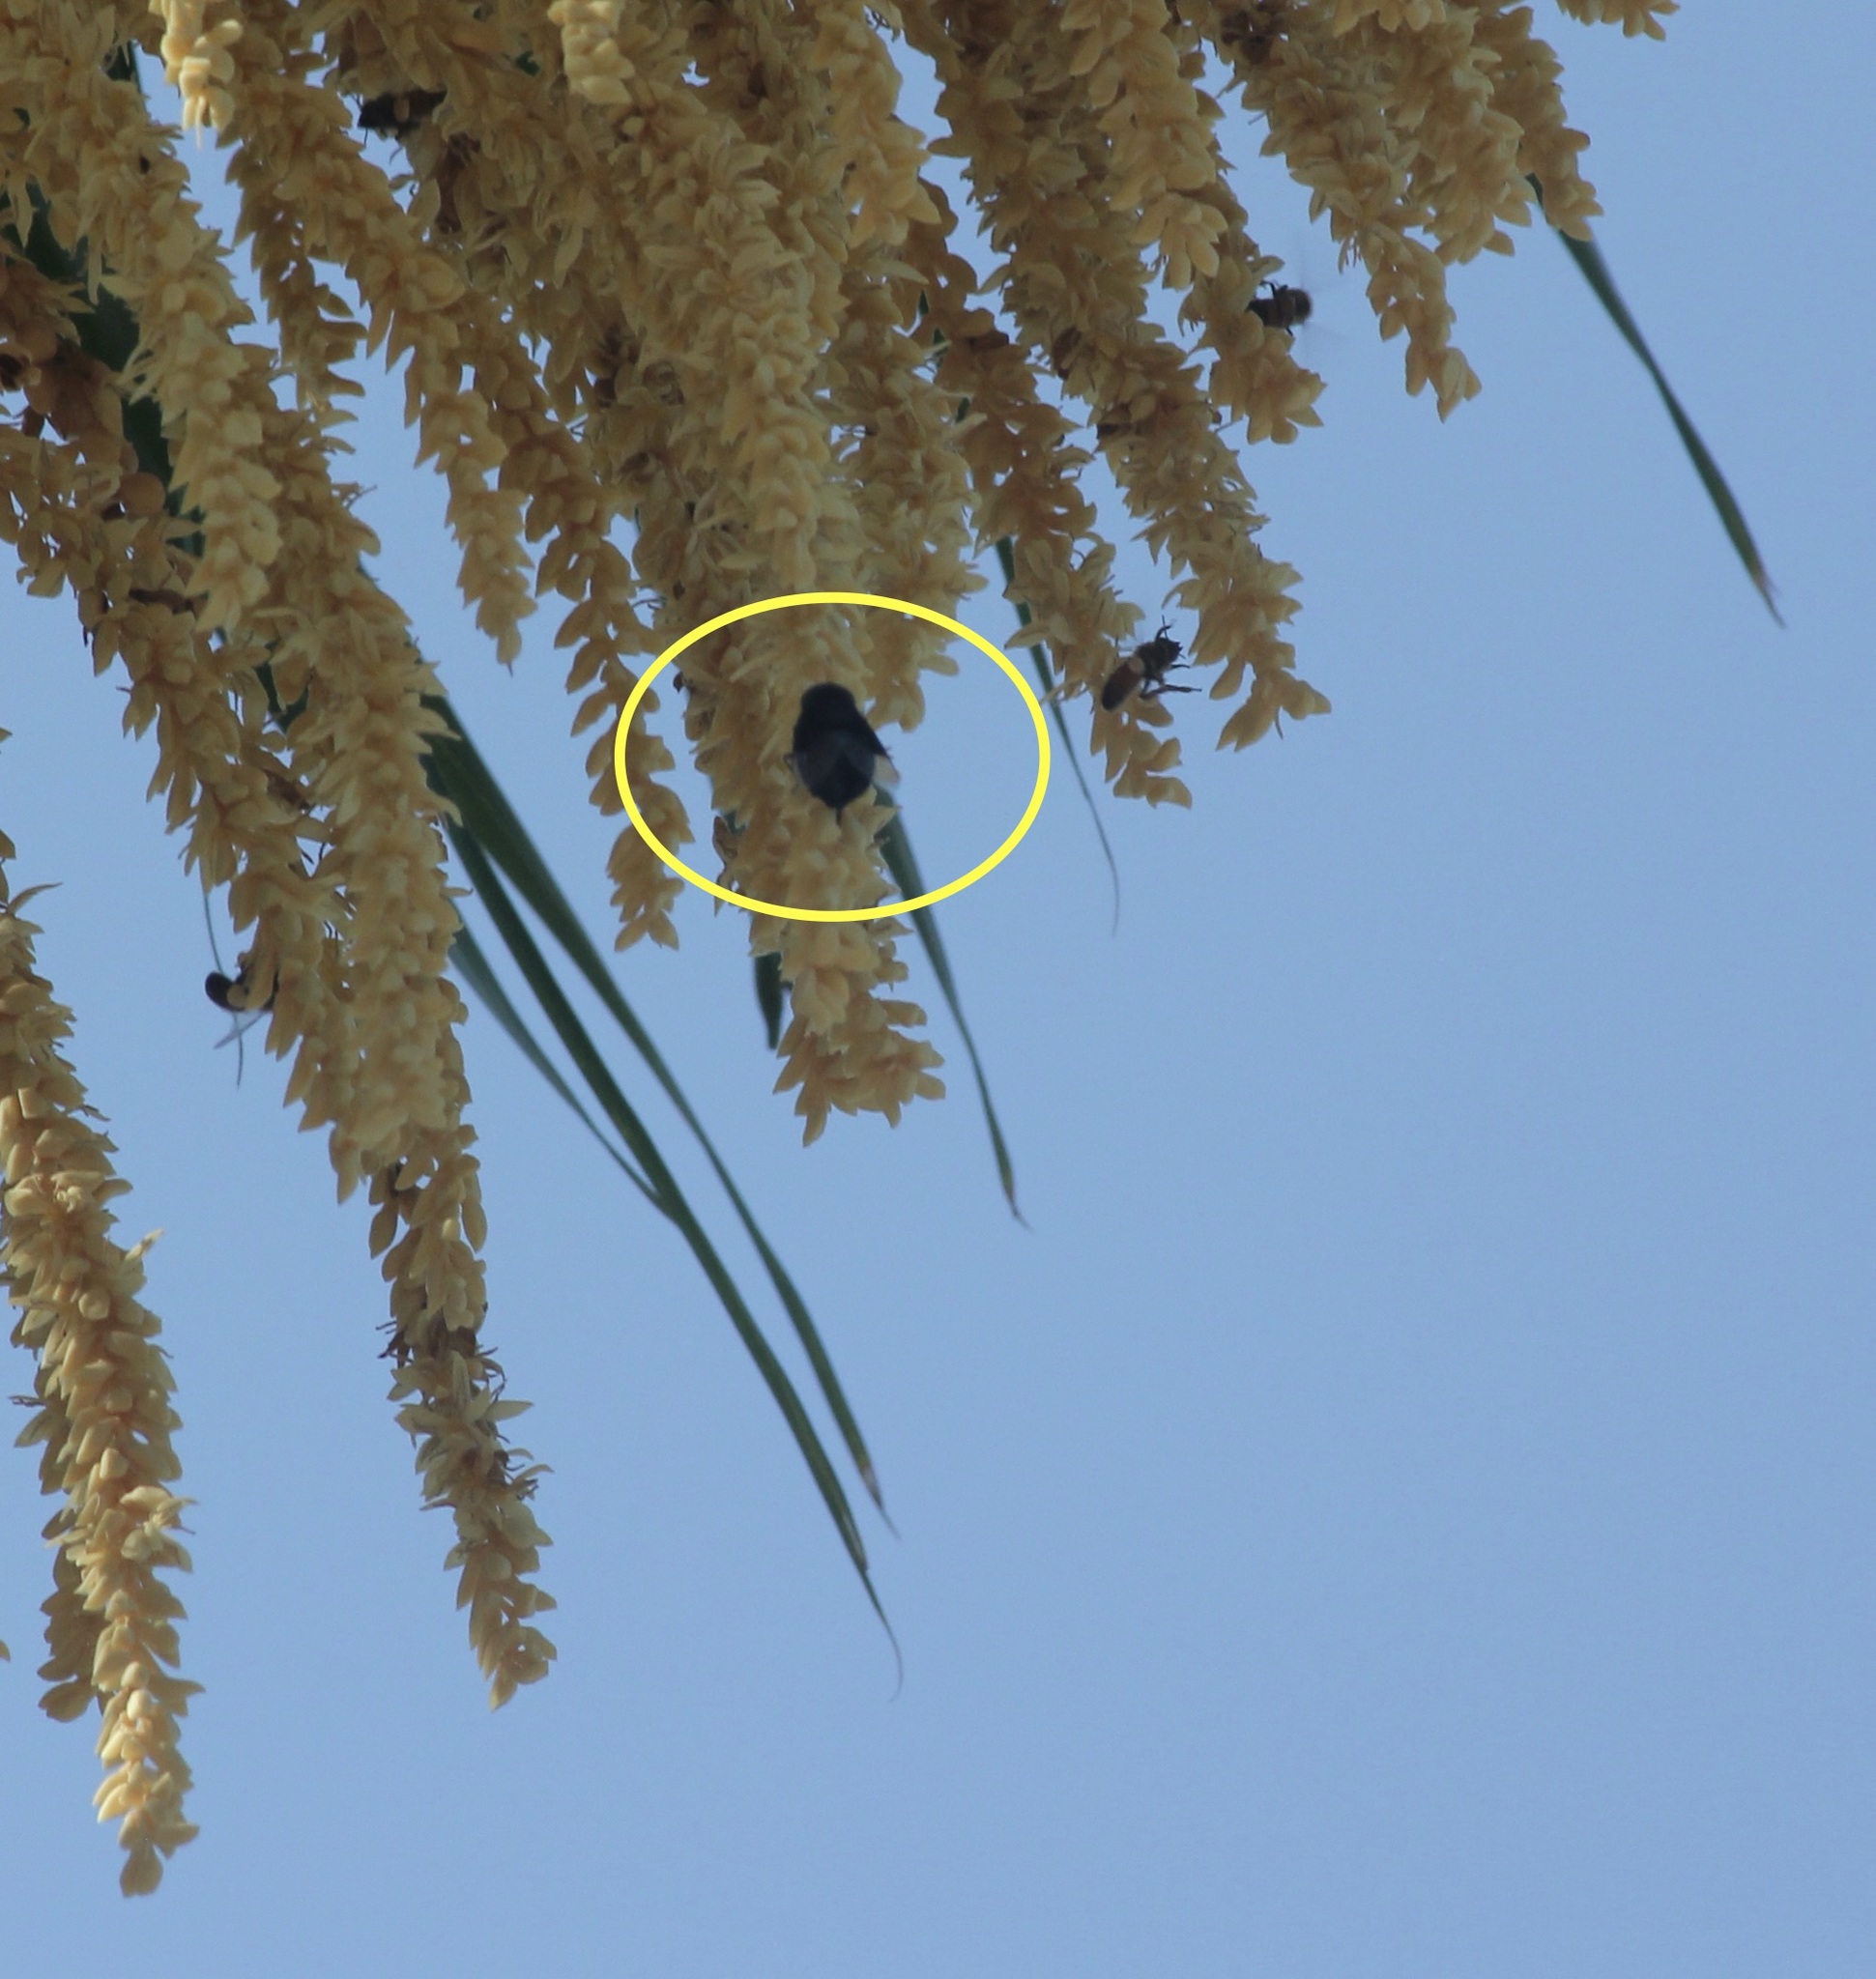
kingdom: Animalia
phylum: Arthropoda
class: Insecta
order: Diptera
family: Syrphidae
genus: Copestylum
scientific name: Copestylum mexicanum
